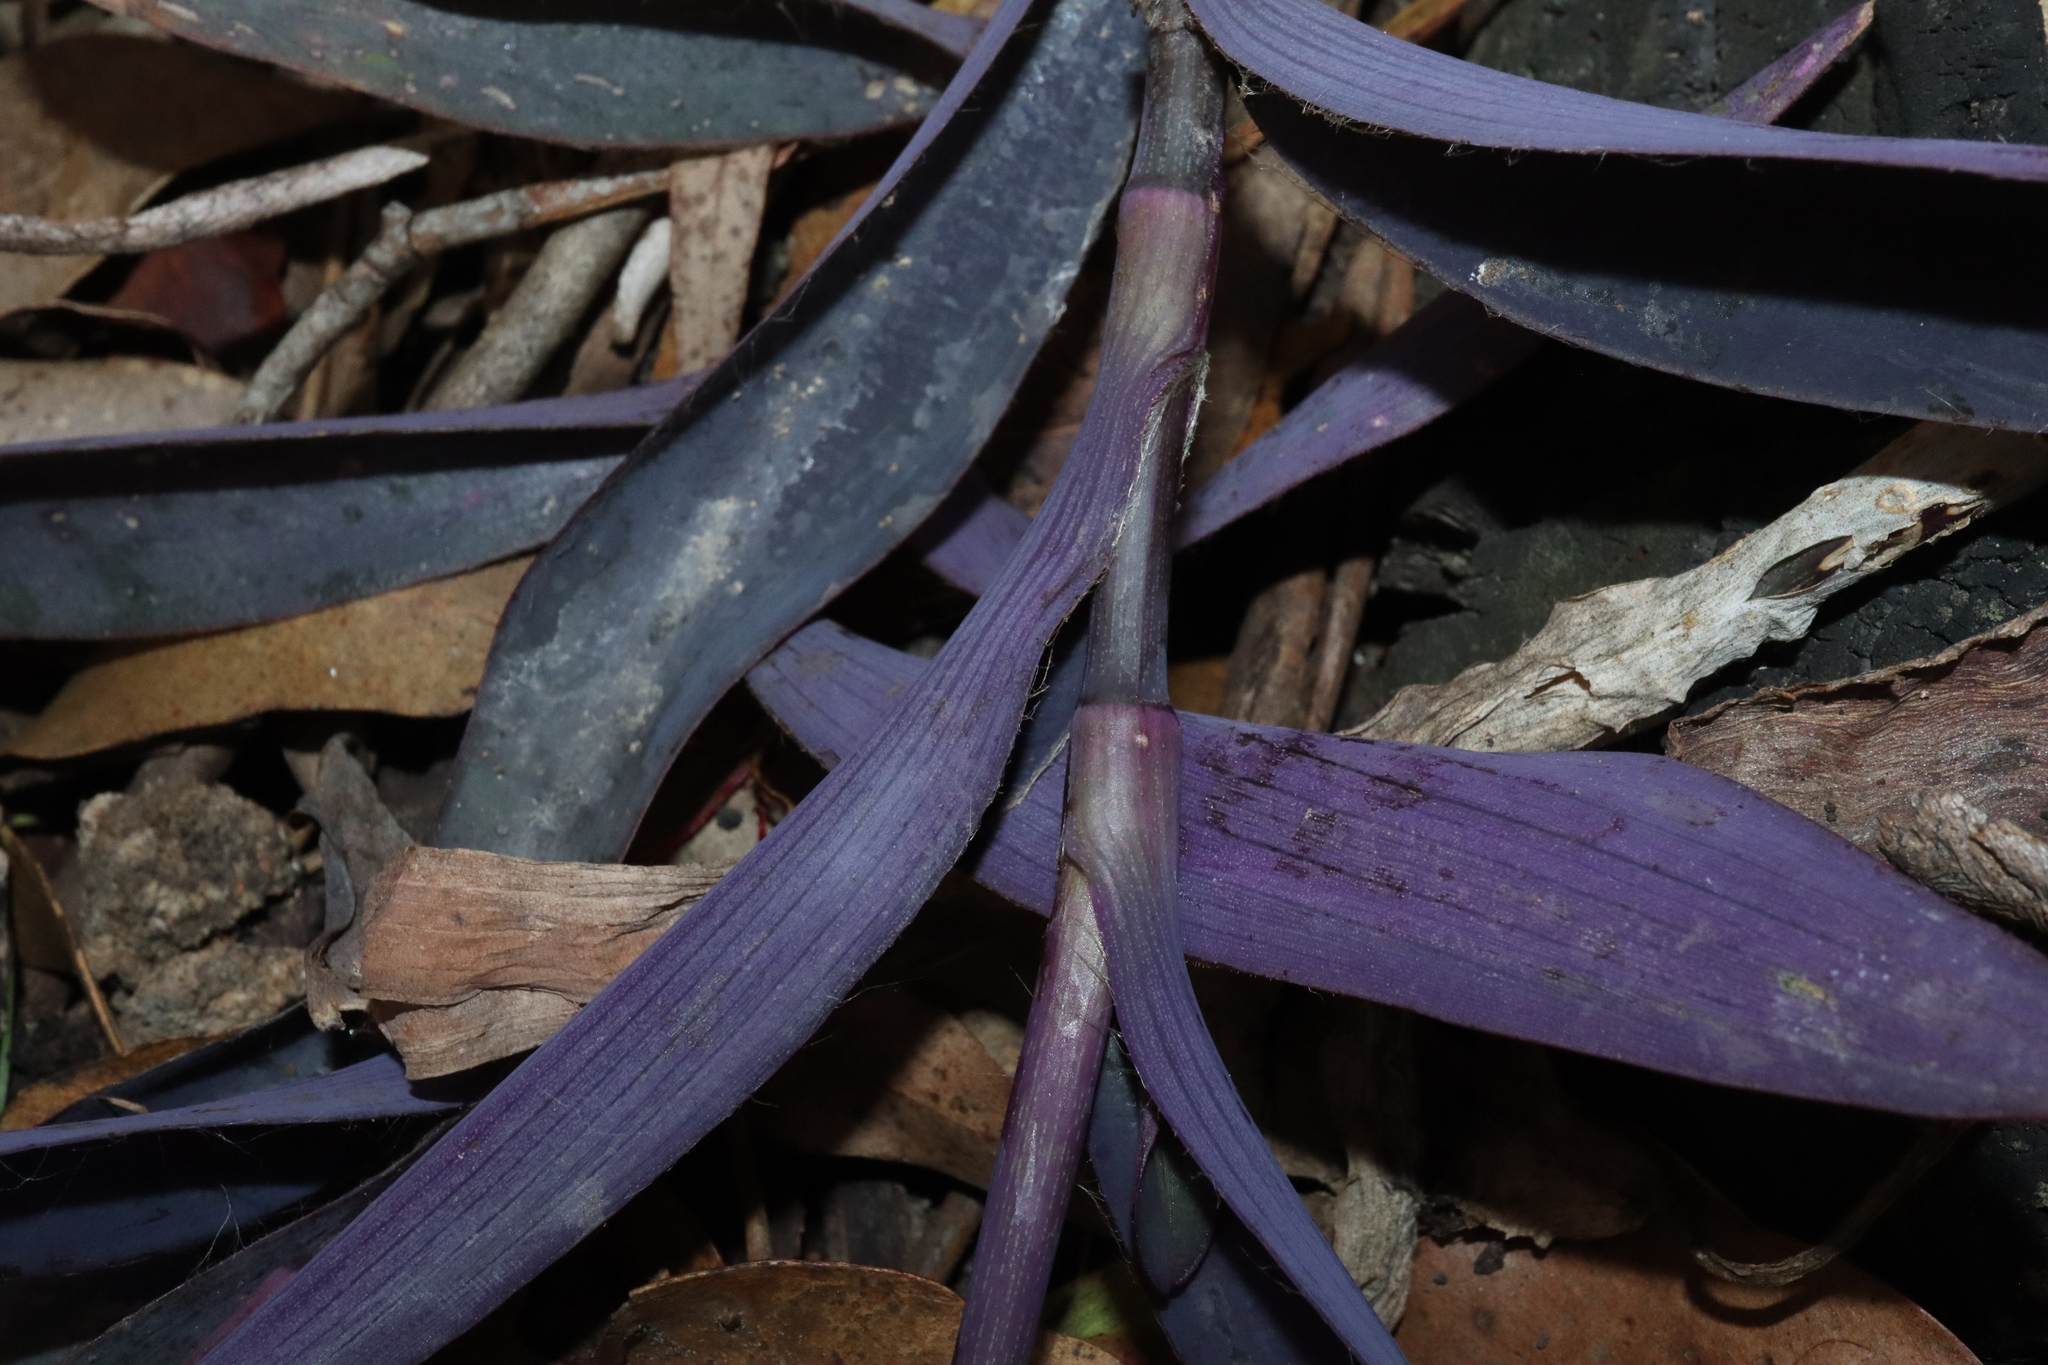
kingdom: Plantae
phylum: Tracheophyta
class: Liliopsida
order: Commelinales
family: Commelinaceae
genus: Tradescantia
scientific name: Tradescantia pallida
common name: Purpleheart
